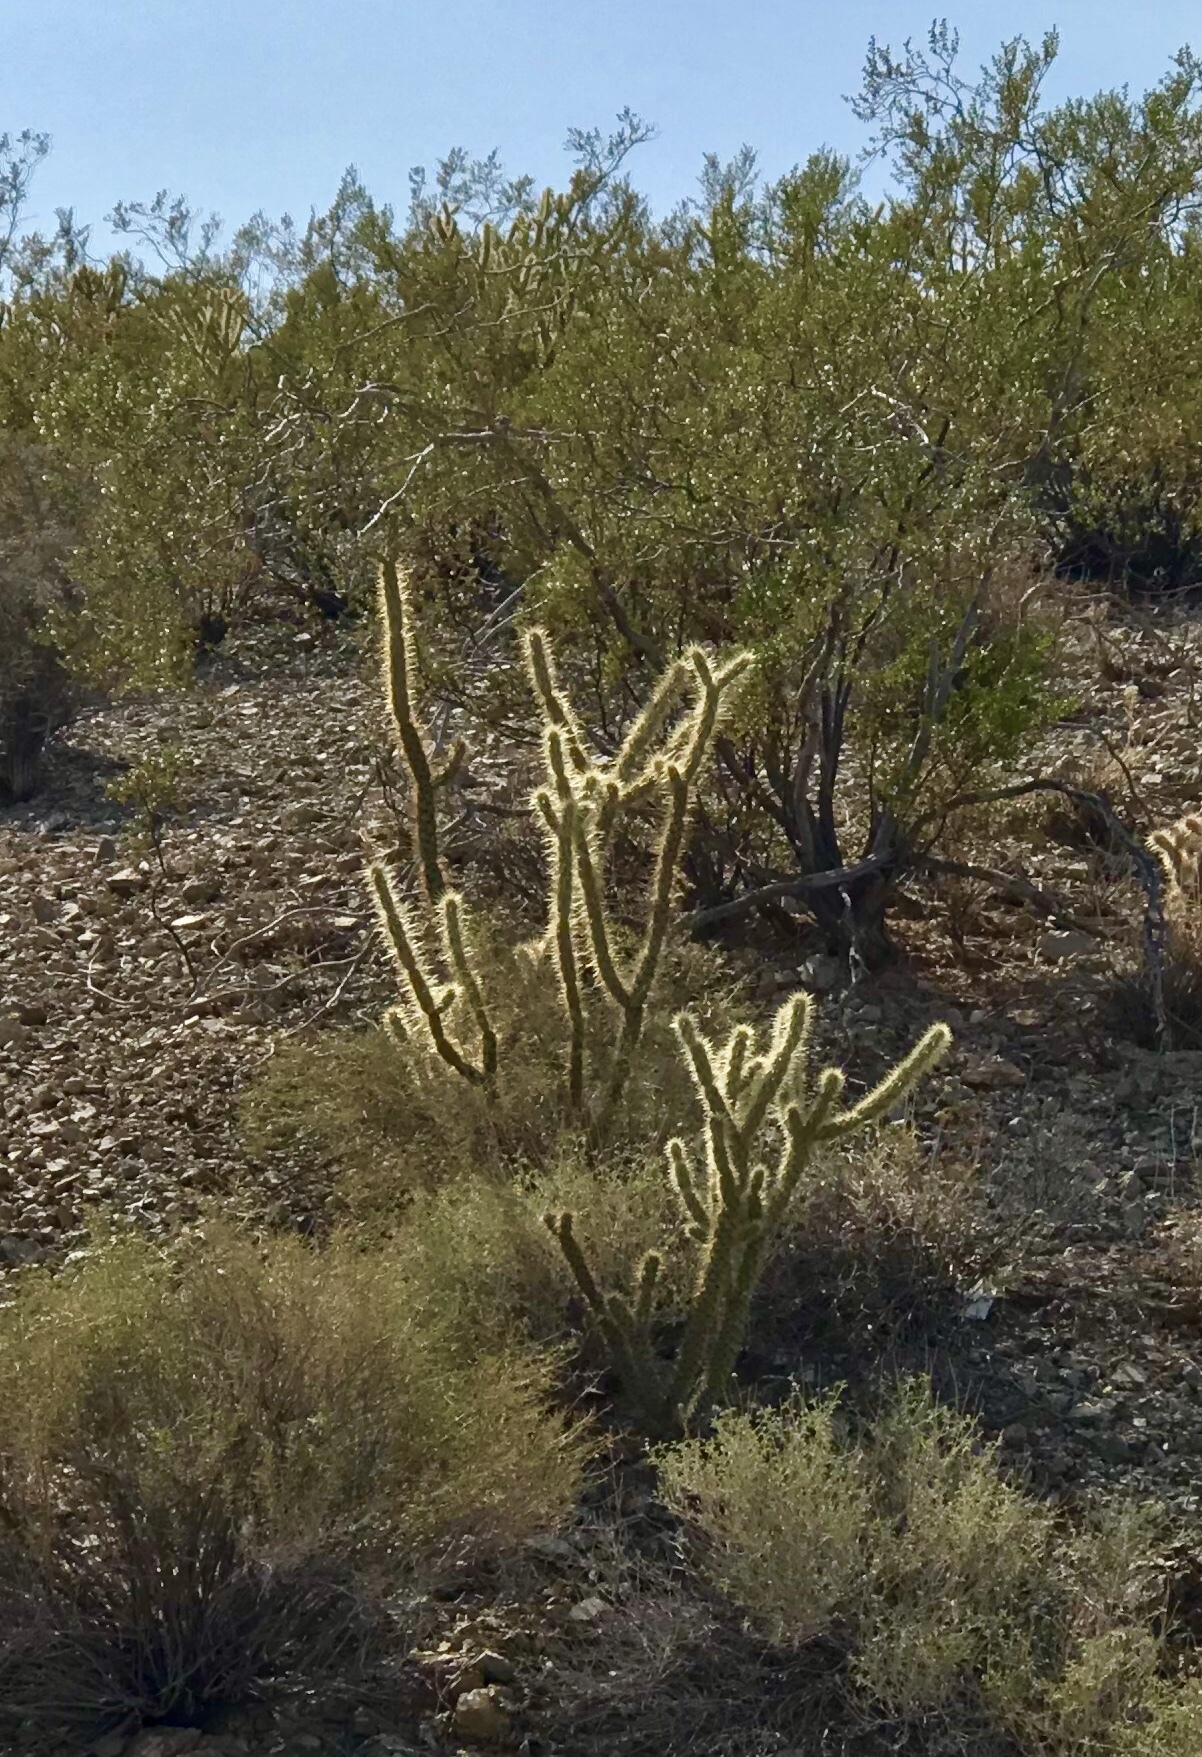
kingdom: Plantae
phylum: Tracheophyta
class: Magnoliopsida
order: Caryophyllales
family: Cactaceae
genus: Cylindropuntia
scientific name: Cylindropuntia acanthocarpa
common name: Buckhorn cholla
